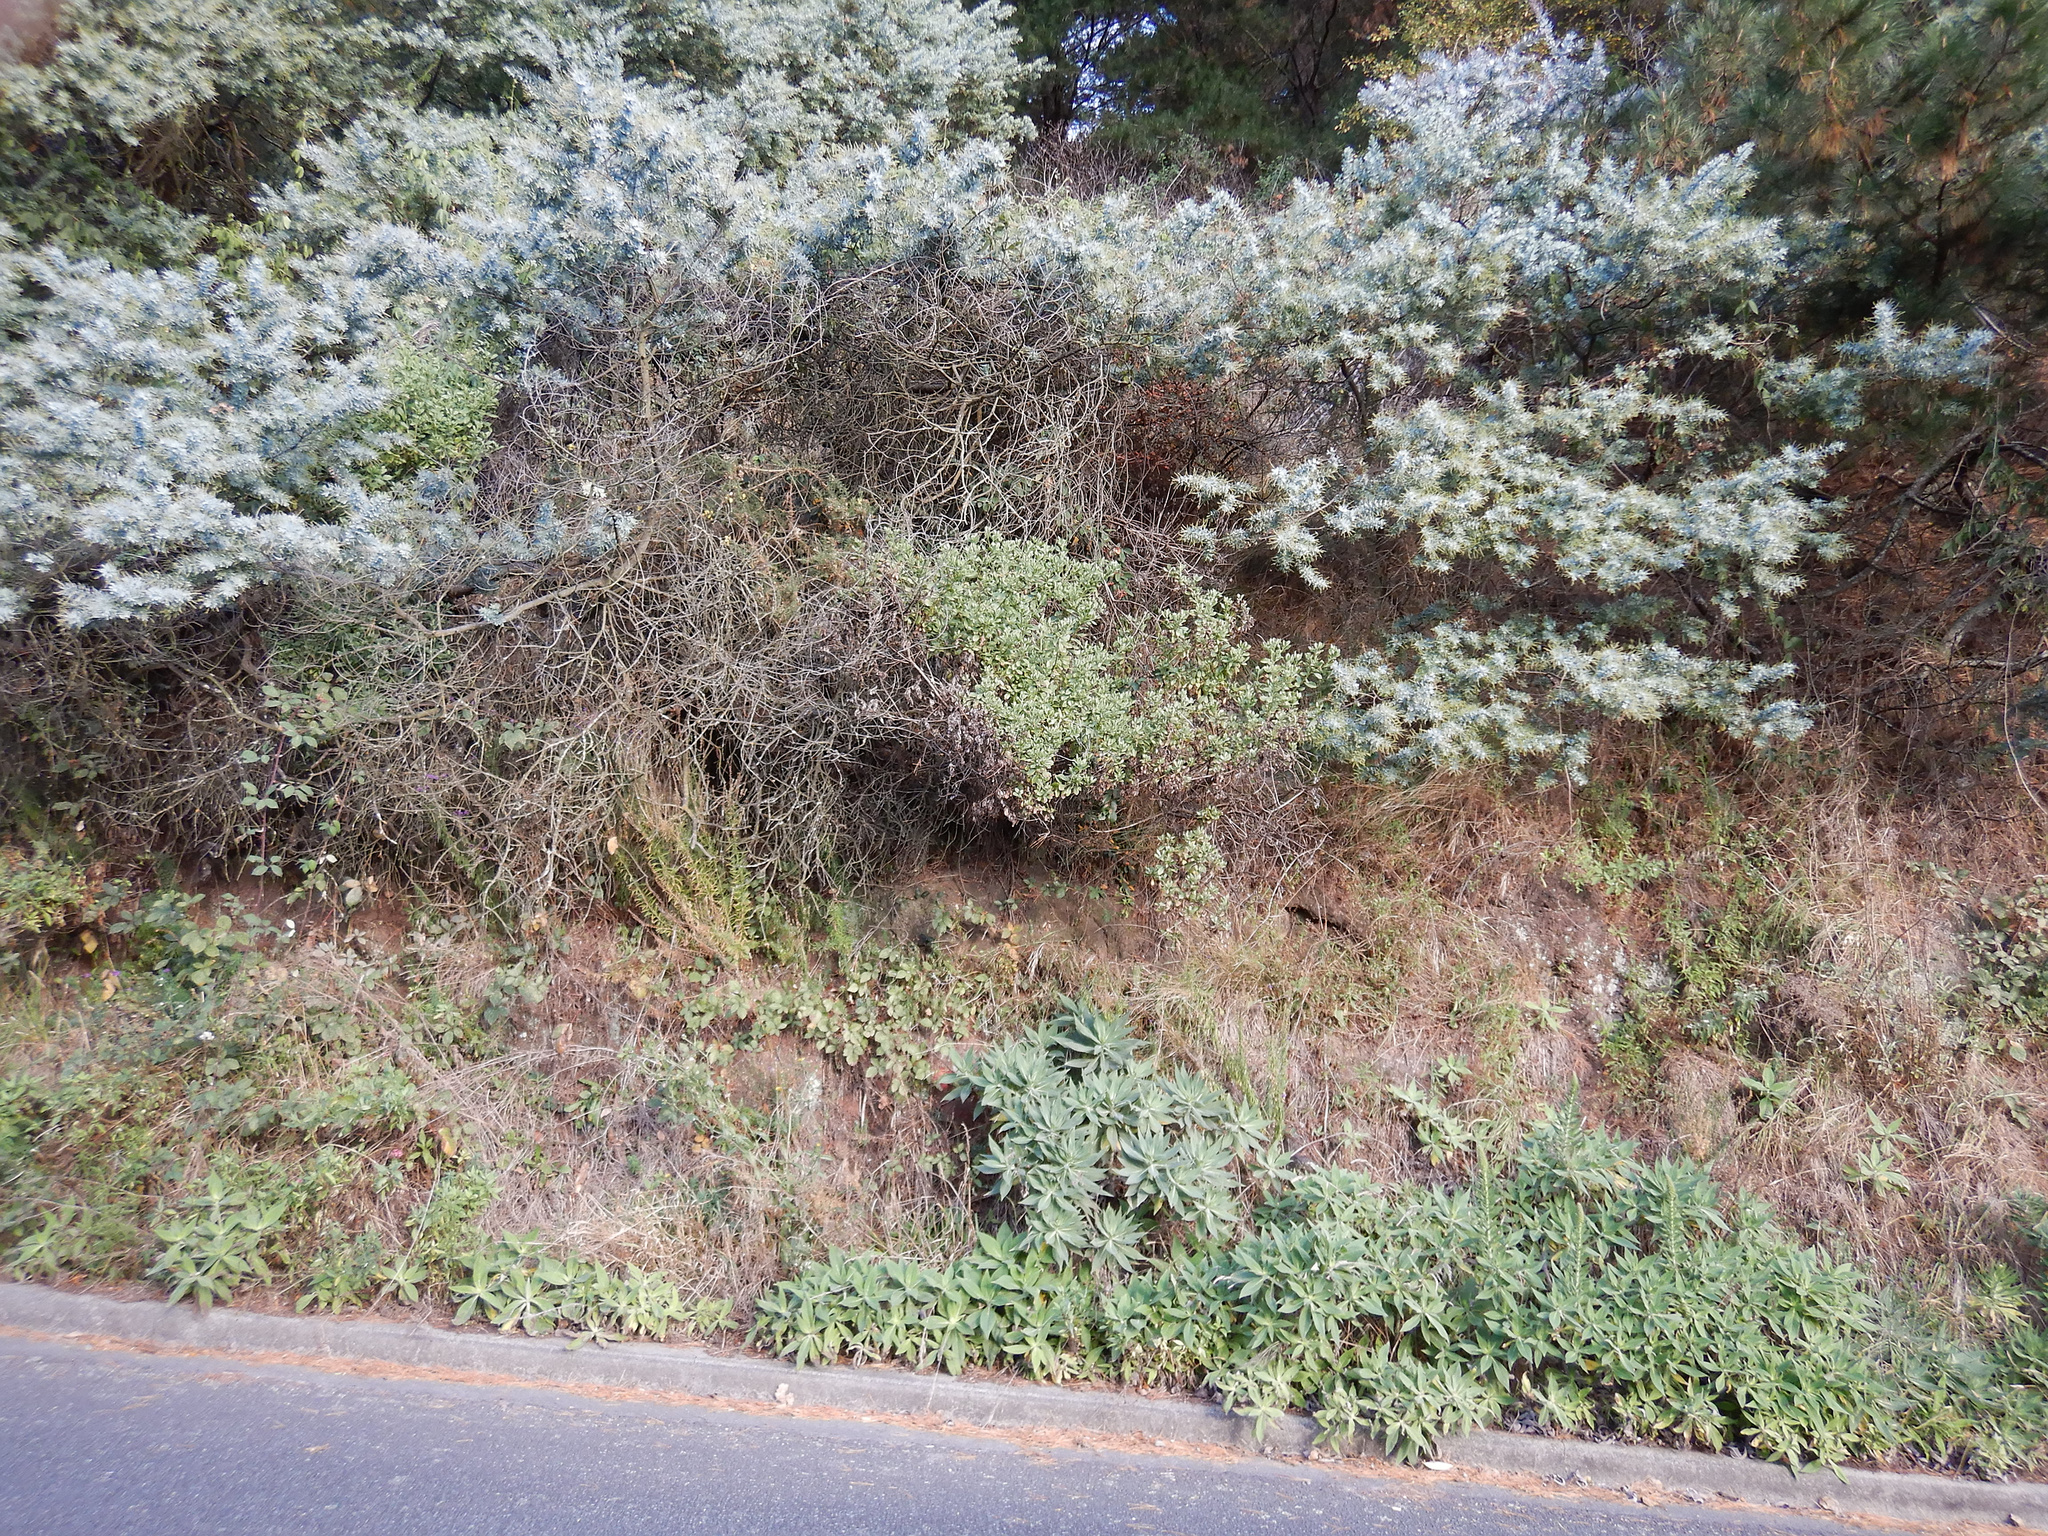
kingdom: Plantae
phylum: Tracheophyta
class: Magnoliopsida
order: Boraginales
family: Boraginaceae
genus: Echium
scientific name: Echium candicans
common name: Pride of madeira
